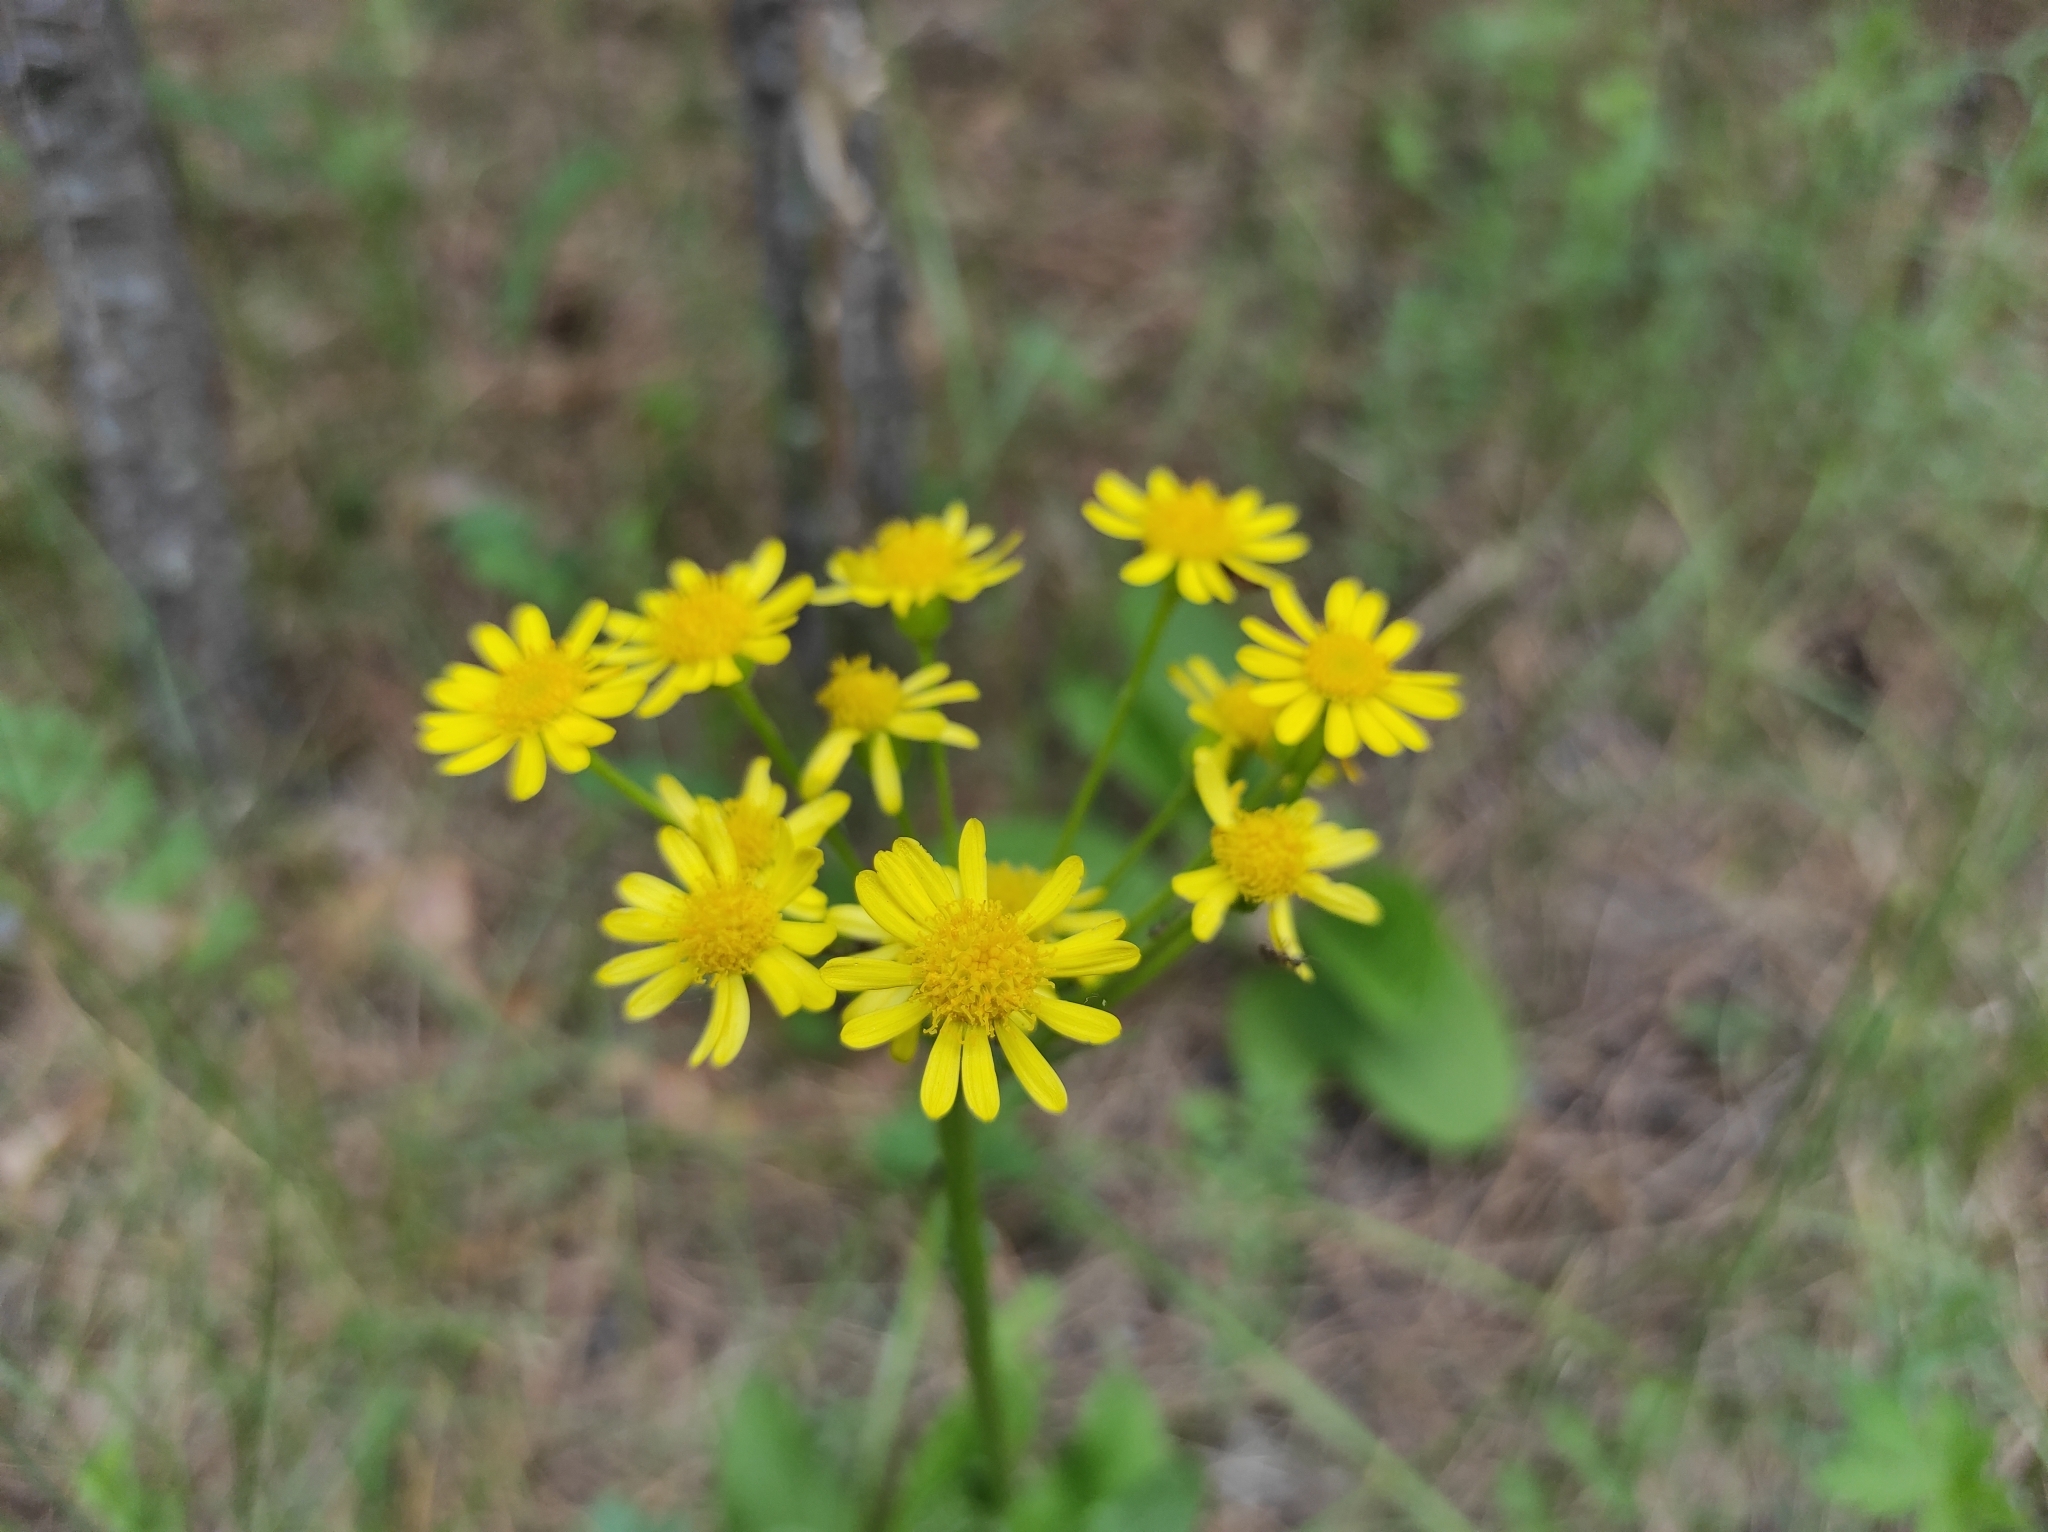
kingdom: Plantae
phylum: Tracheophyta
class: Magnoliopsida
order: Asterales
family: Asteraceae
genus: Tephroseris
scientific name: Tephroseris integrifolia
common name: Field fleawort
